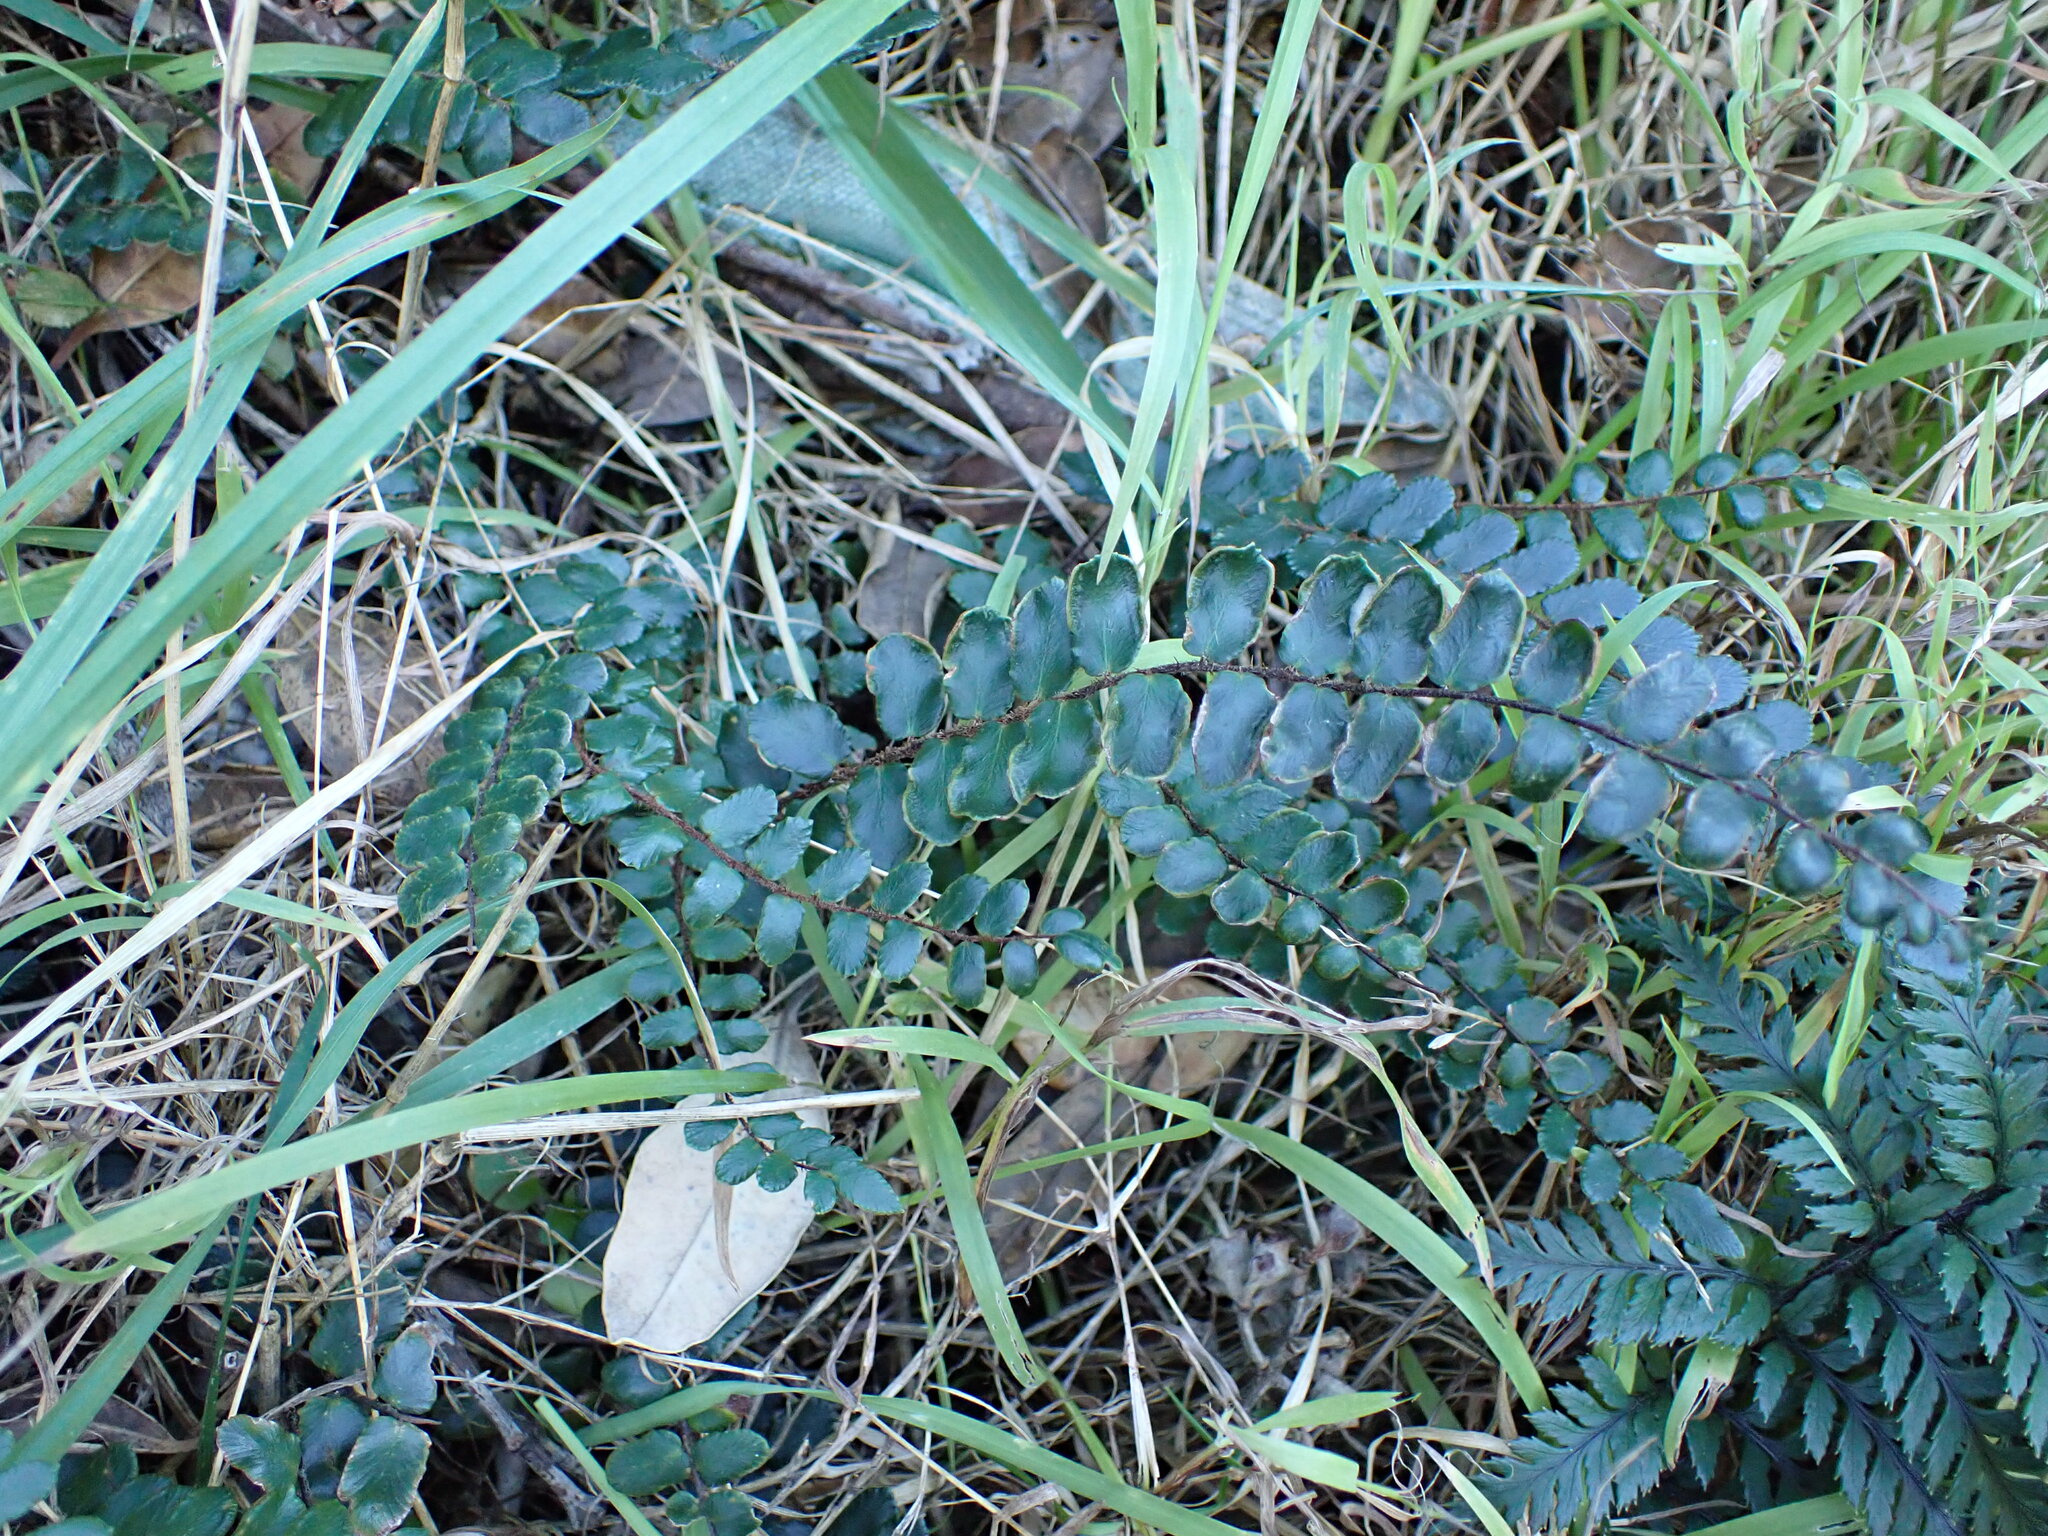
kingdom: Plantae
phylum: Tracheophyta
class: Polypodiopsida
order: Polypodiales
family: Pteridaceae
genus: Pellaea
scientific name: Pellaea rotundifolia
